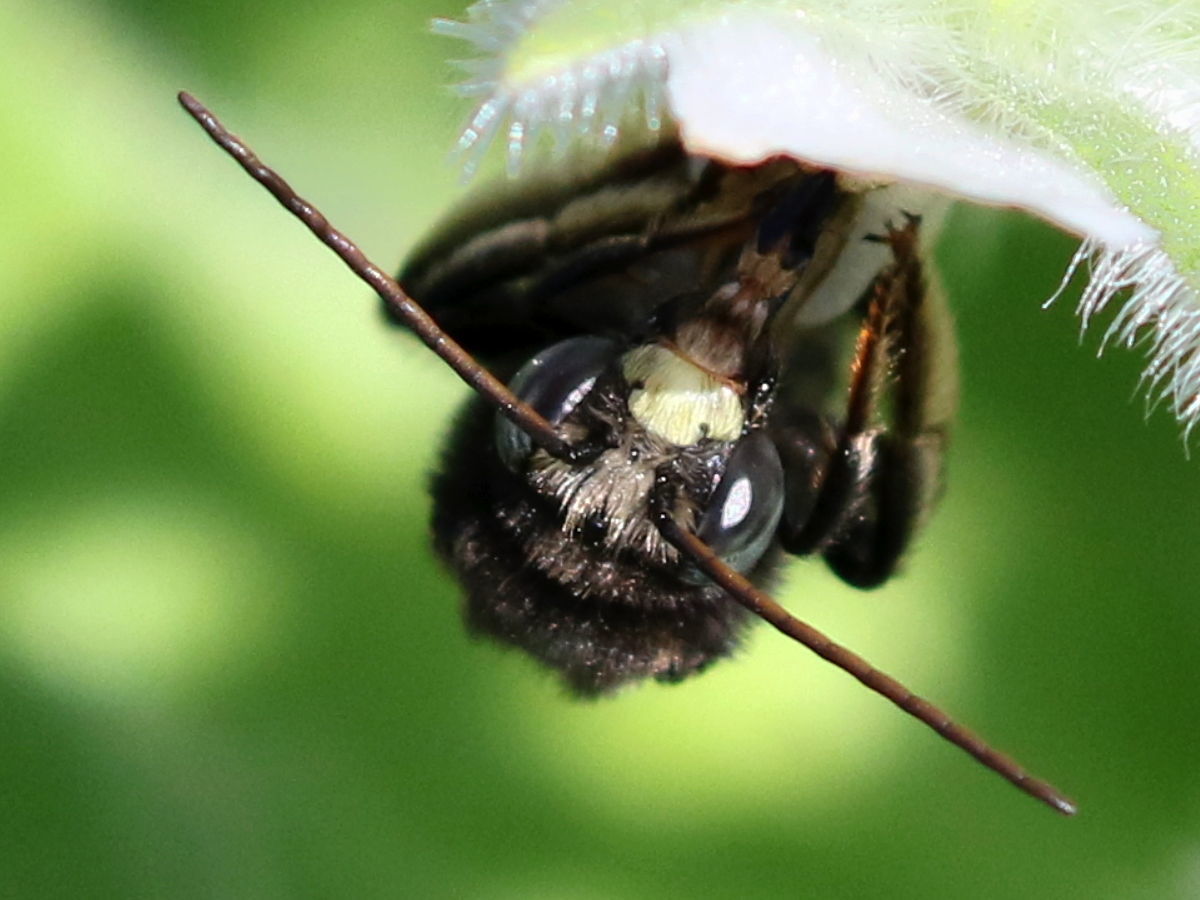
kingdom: Animalia
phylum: Arthropoda
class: Insecta
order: Hymenoptera
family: Apidae
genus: Melissodes
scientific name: Melissodes bimaculatus
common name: Two-spotted long-horned bee
